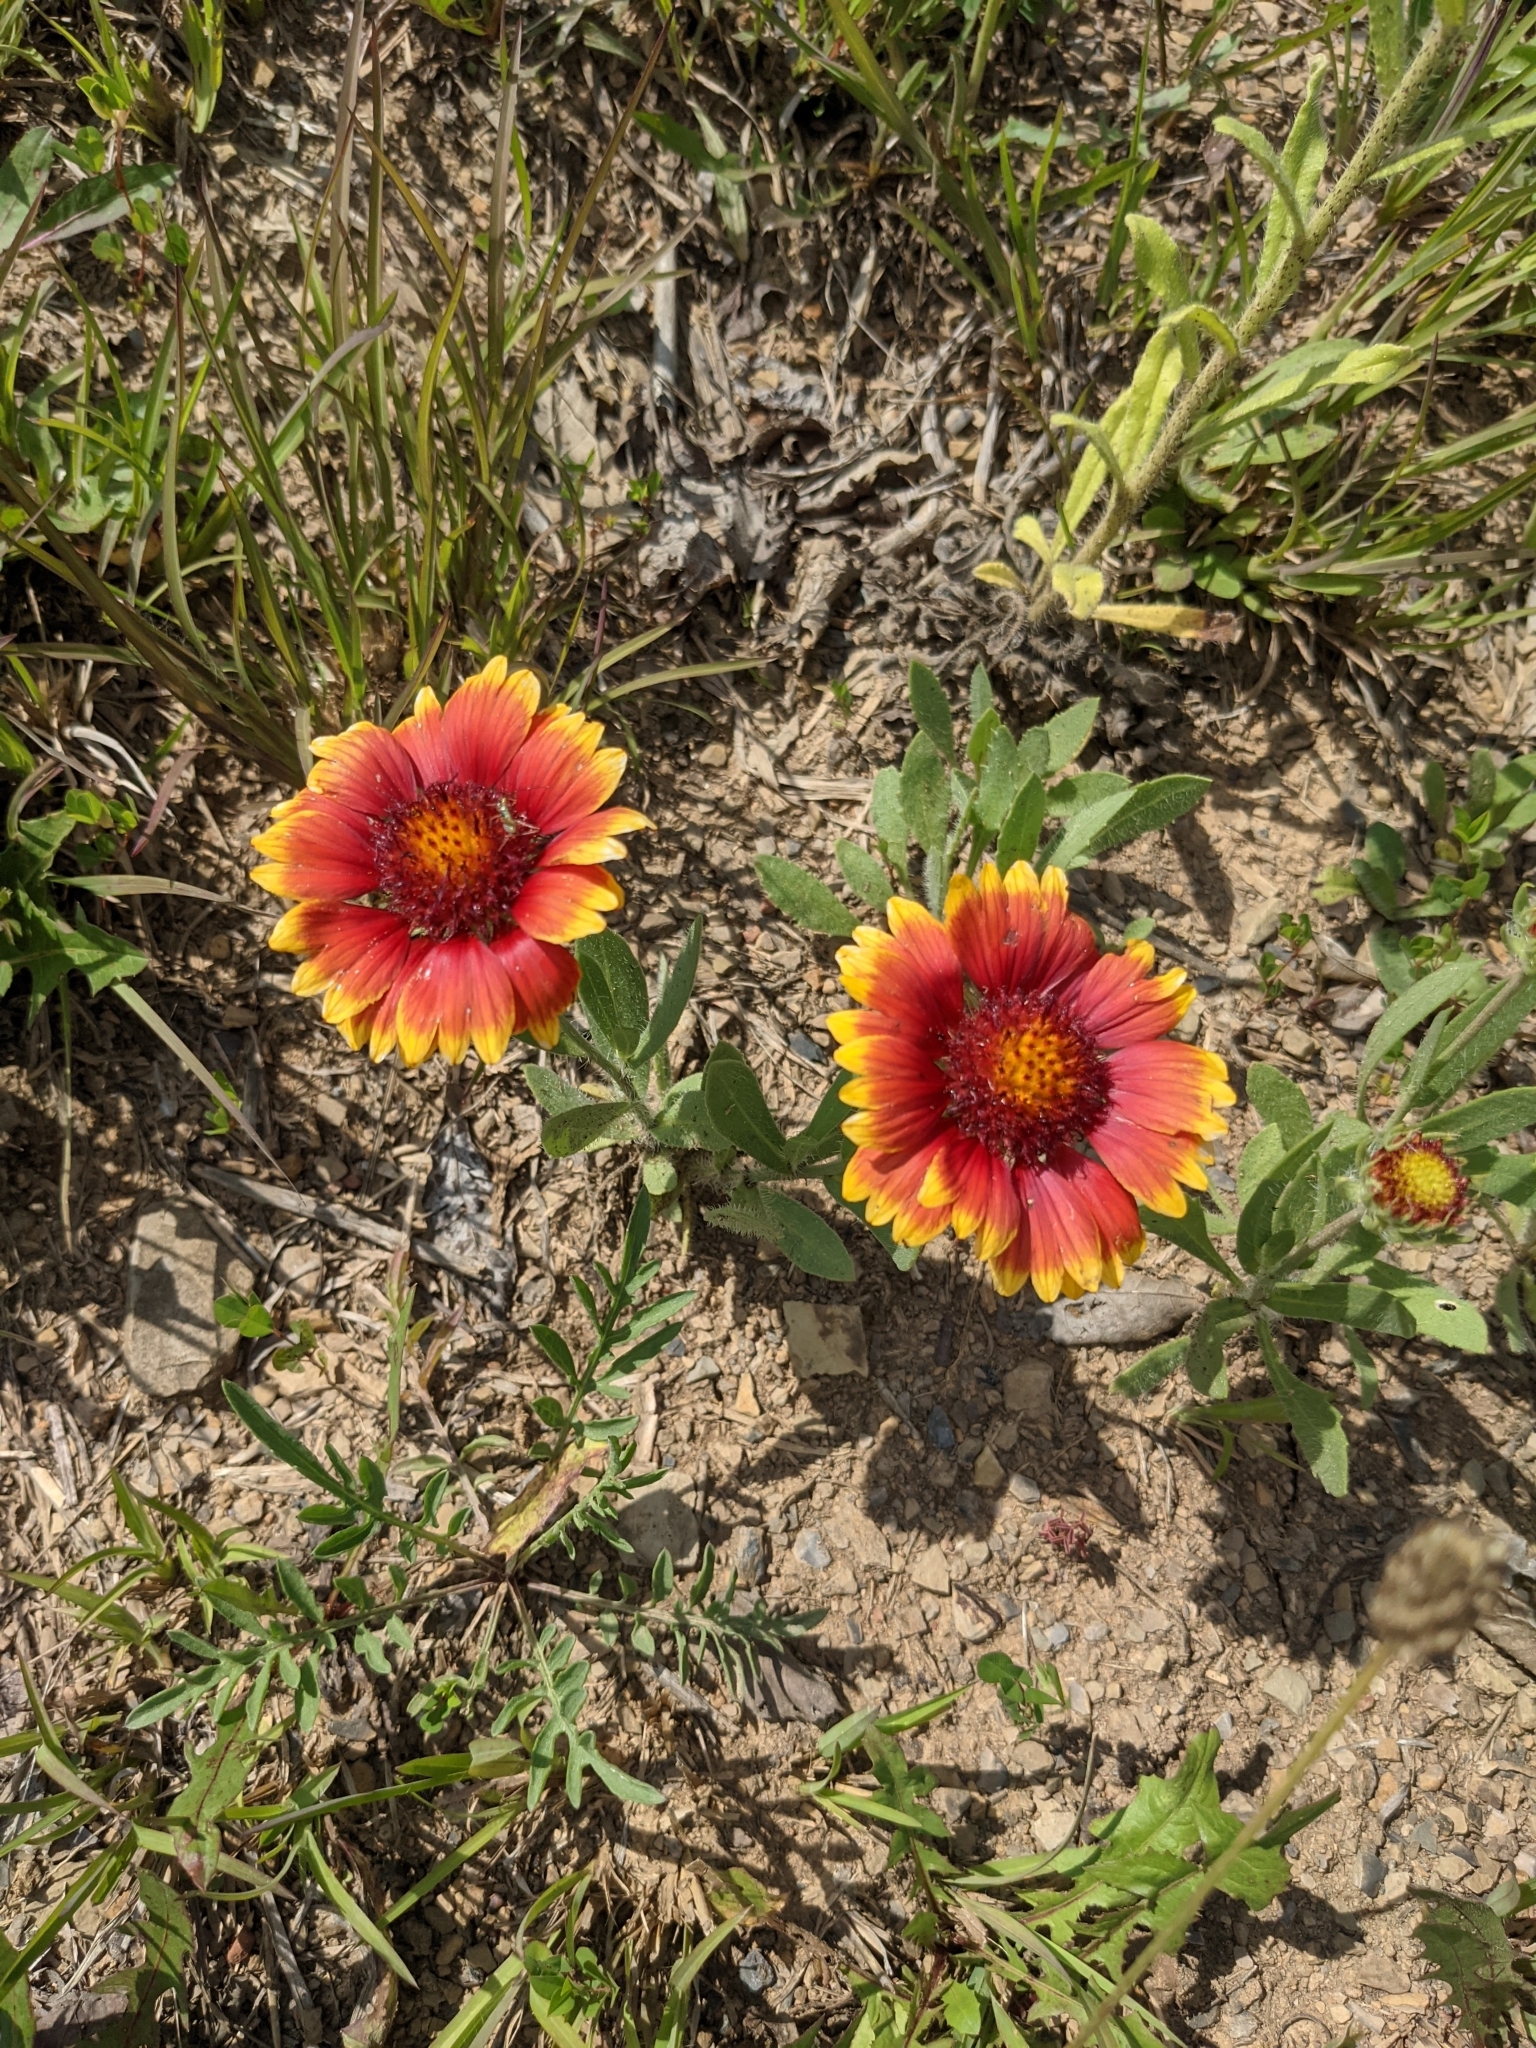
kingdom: Plantae
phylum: Tracheophyta
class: Magnoliopsida
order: Asterales
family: Asteraceae
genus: Gaillardia
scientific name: Gaillardia pulchella
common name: Firewheel
